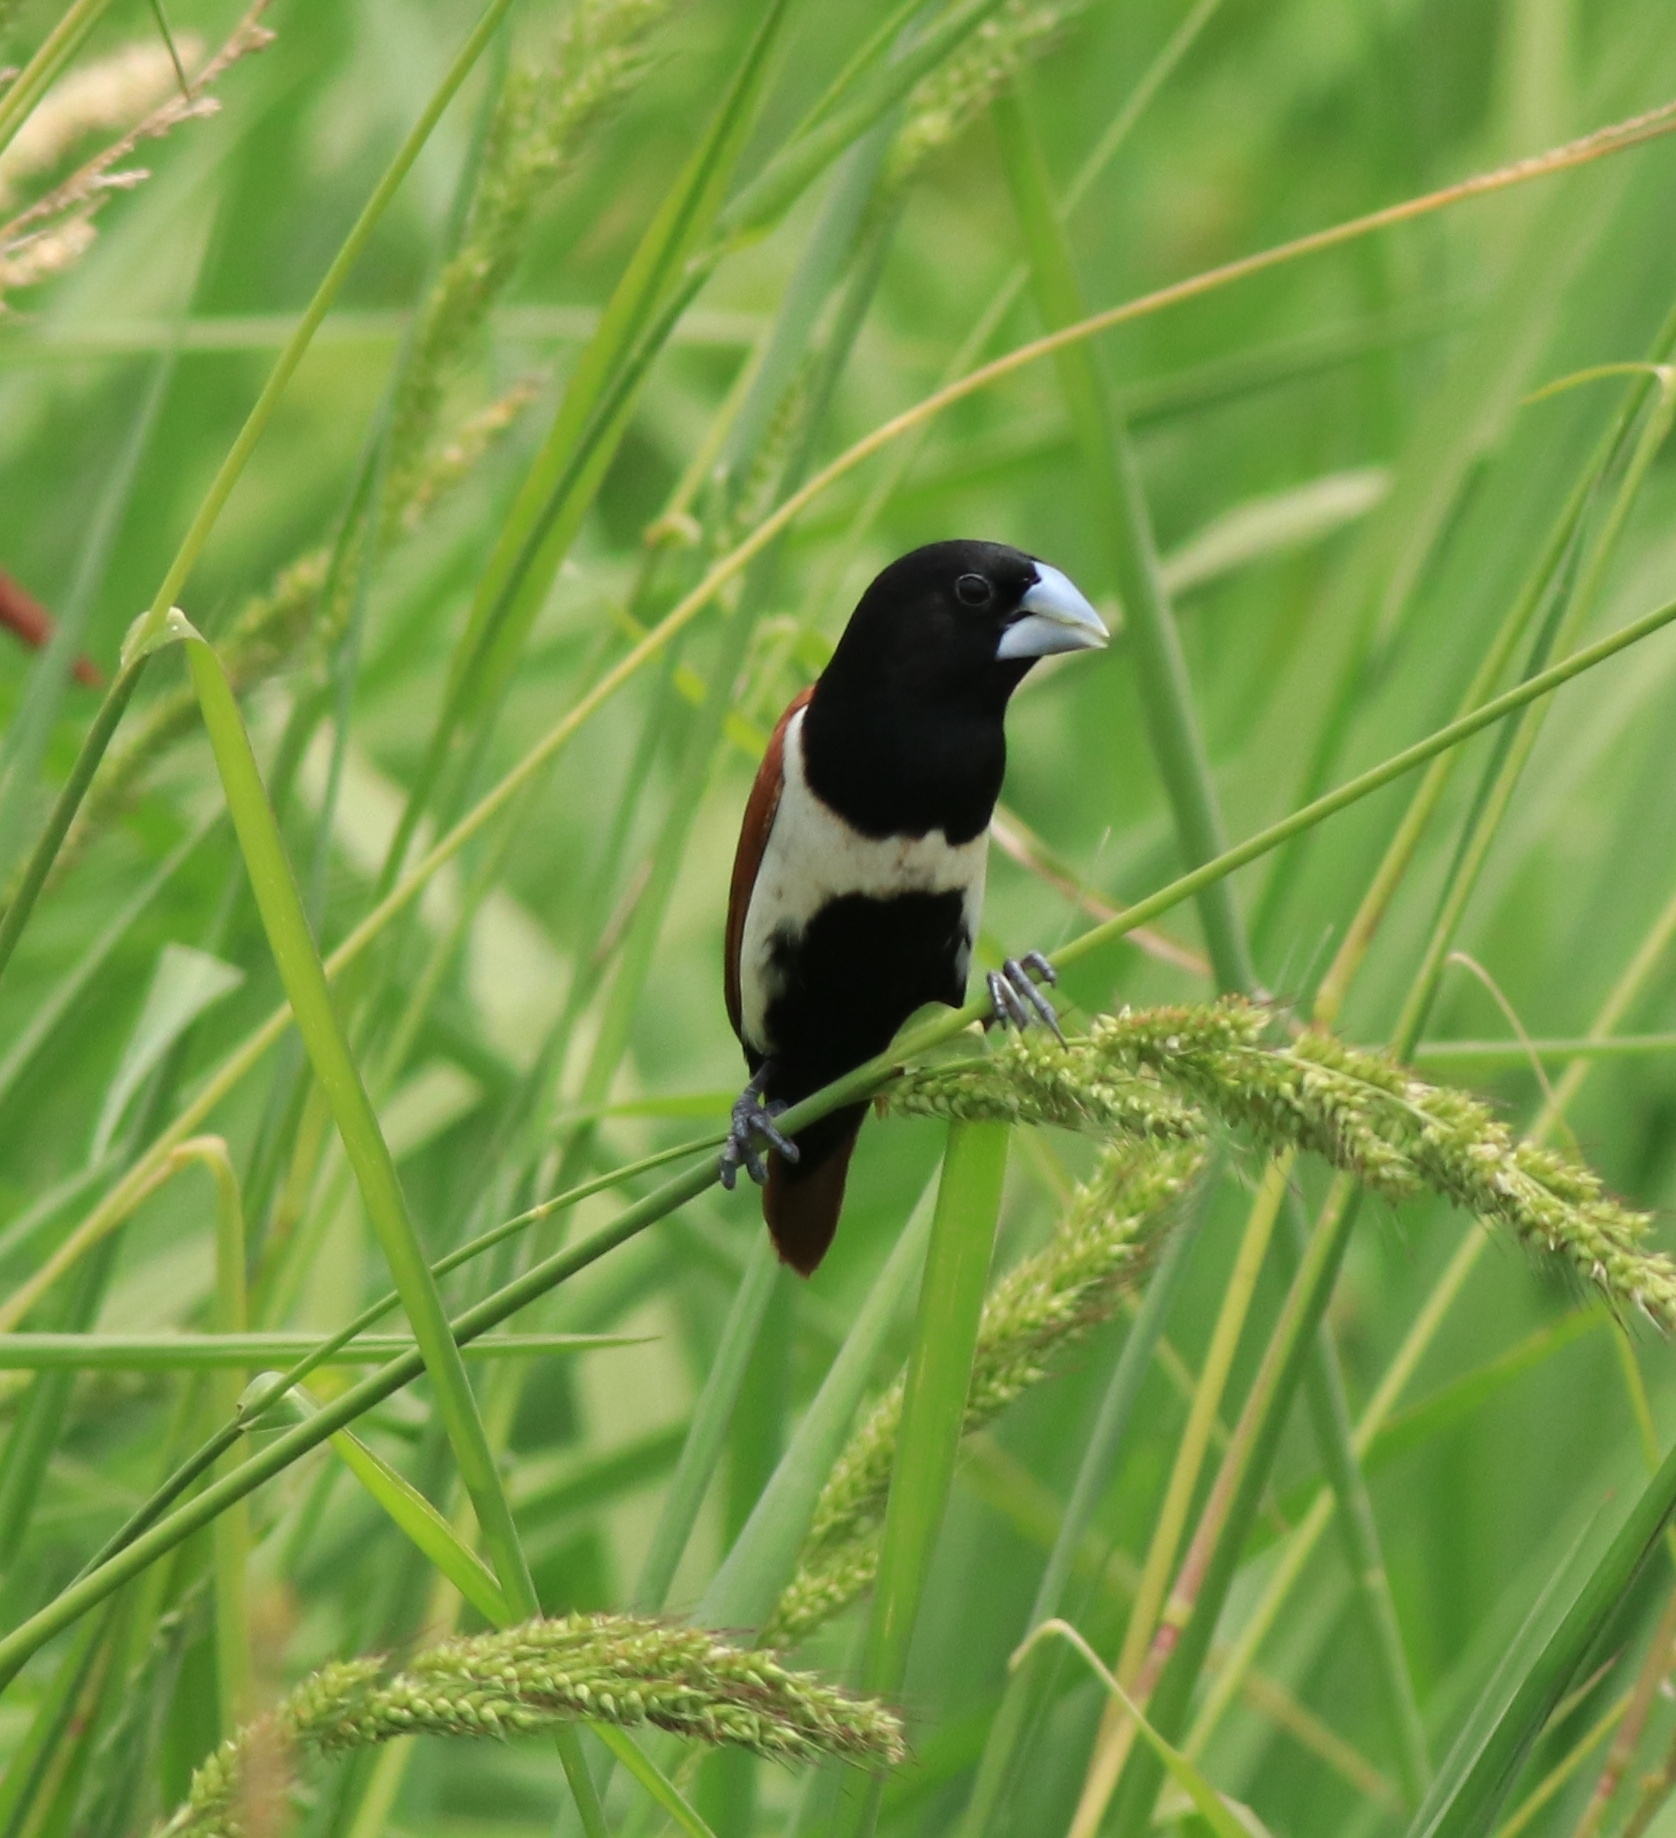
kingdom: Animalia
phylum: Chordata
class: Aves
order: Passeriformes
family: Estrildidae
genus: Lonchura
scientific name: Lonchura malacca
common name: Tricolored munia
